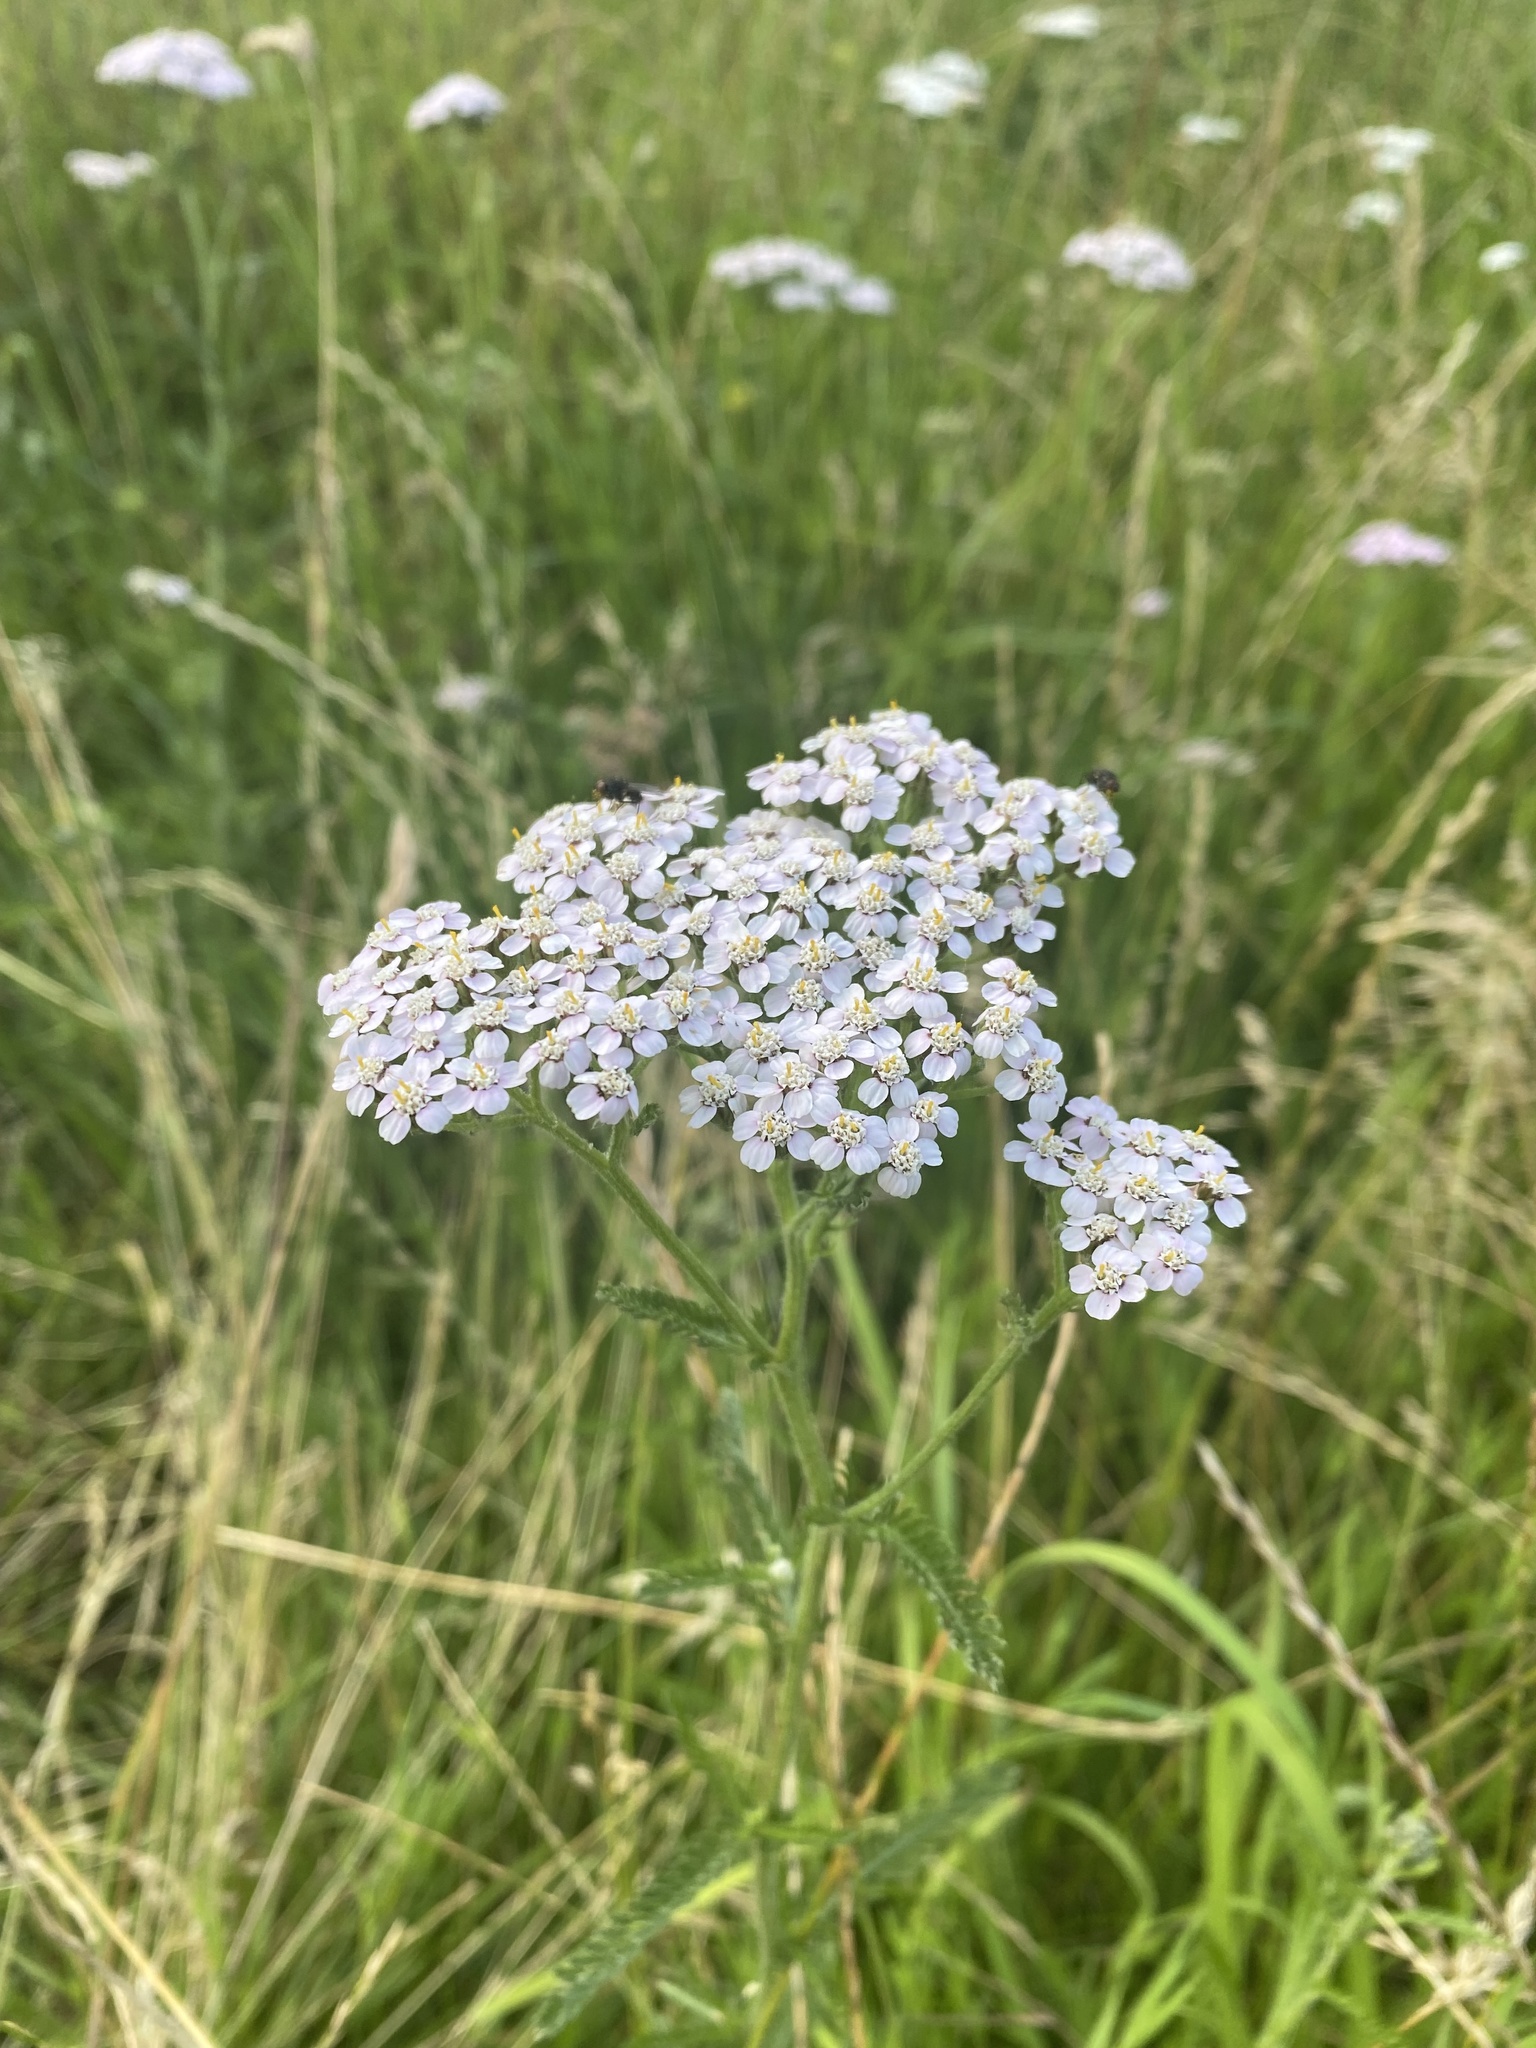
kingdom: Plantae
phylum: Tracheophyta
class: Magnoliopsida
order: Asterales
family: Asteraceae
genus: Achillea
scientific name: Achillea millefolium
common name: Yarrow
